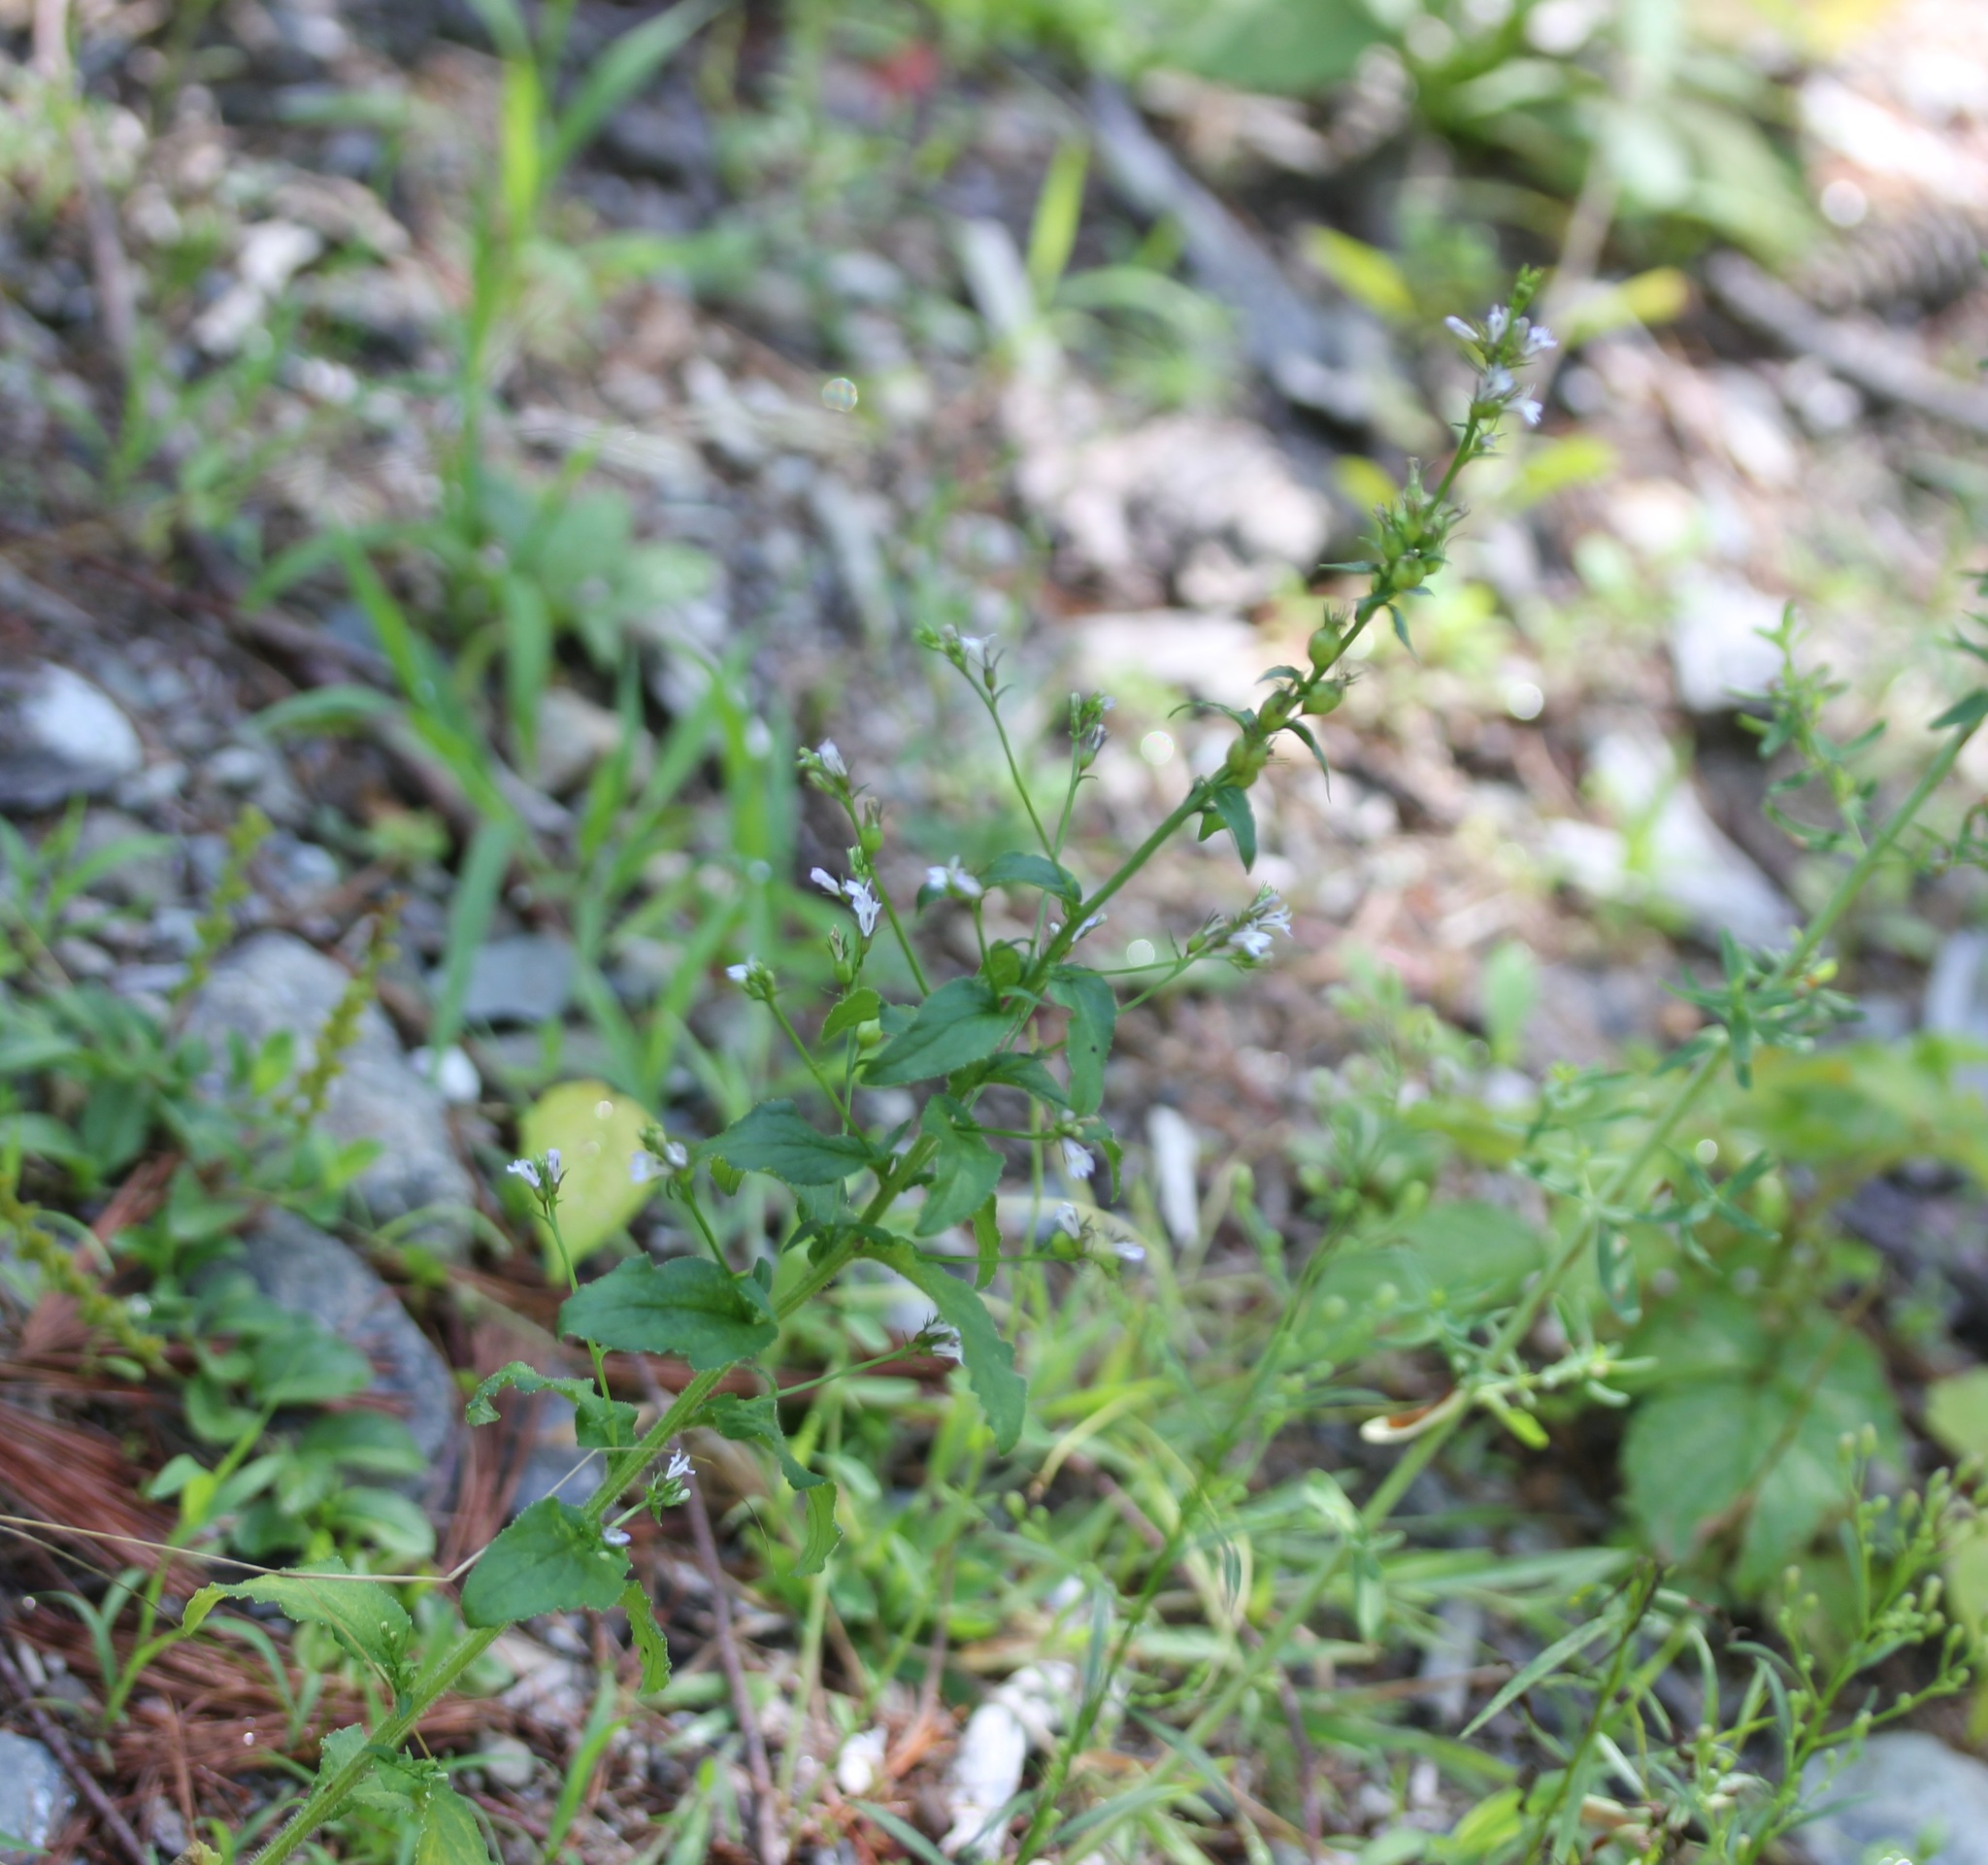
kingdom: Plantae
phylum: Tracheophyta
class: Magnoliopsida
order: Asterales
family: Campanulaceae
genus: Lobelia
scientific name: Lobelia inflata
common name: Indian tobacco
